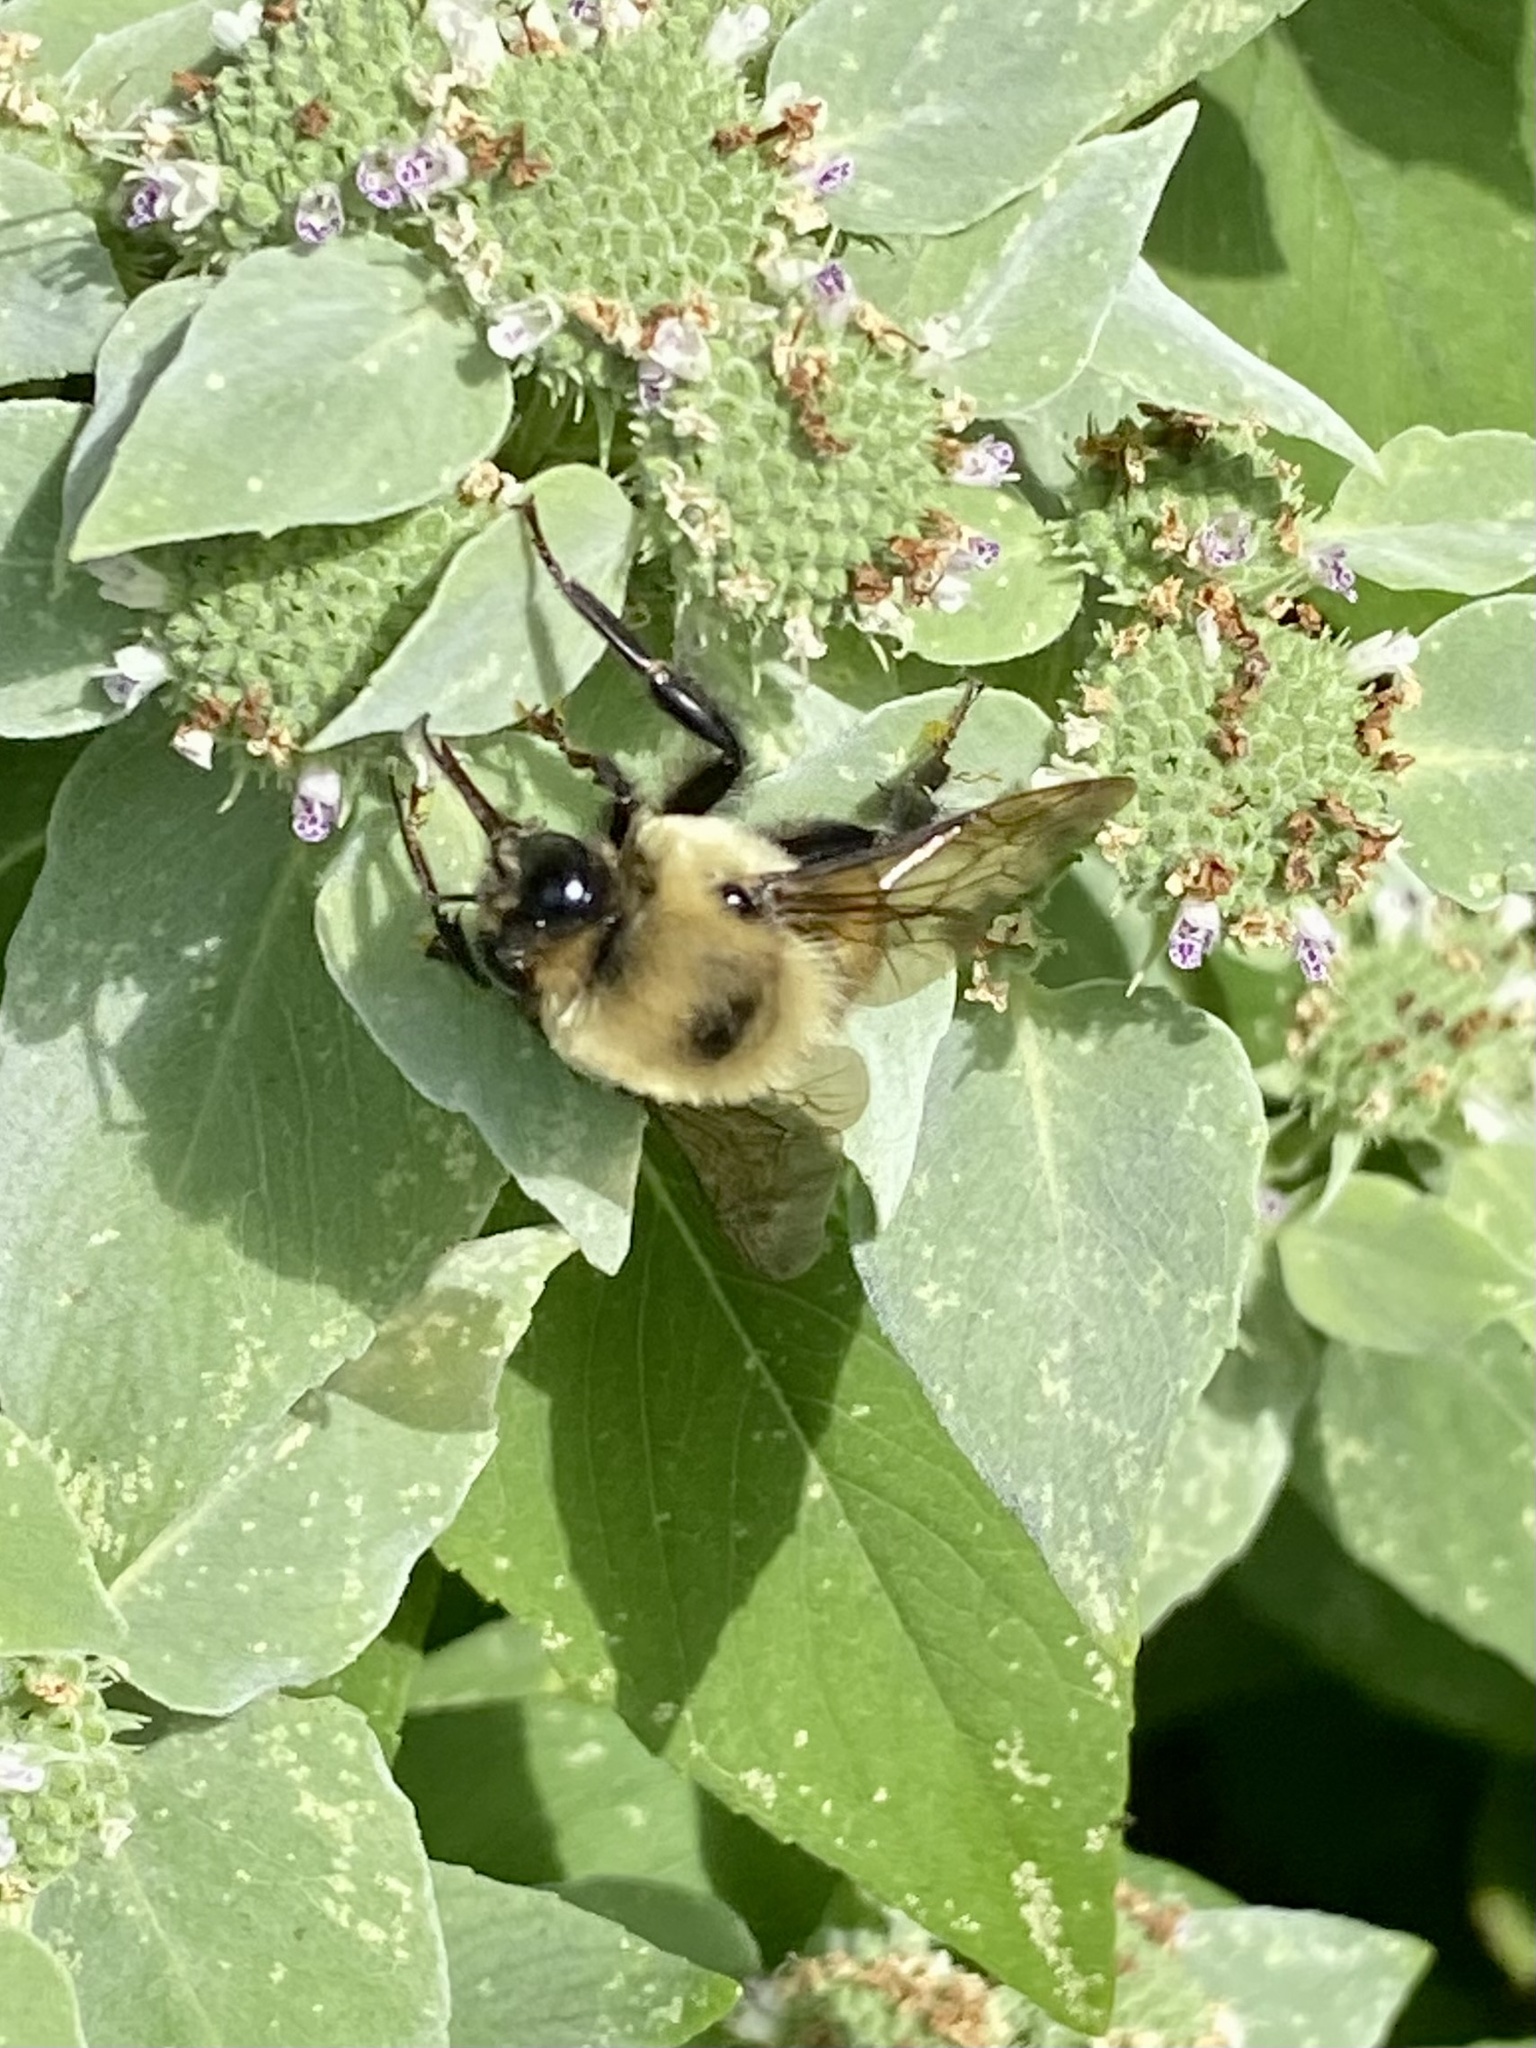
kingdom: Animalia
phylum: Arthropoda
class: Insecta
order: Hymenoptera
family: Apidae
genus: Bombus
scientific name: Bombus griseocollis
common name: Brown-belted bumble bee
